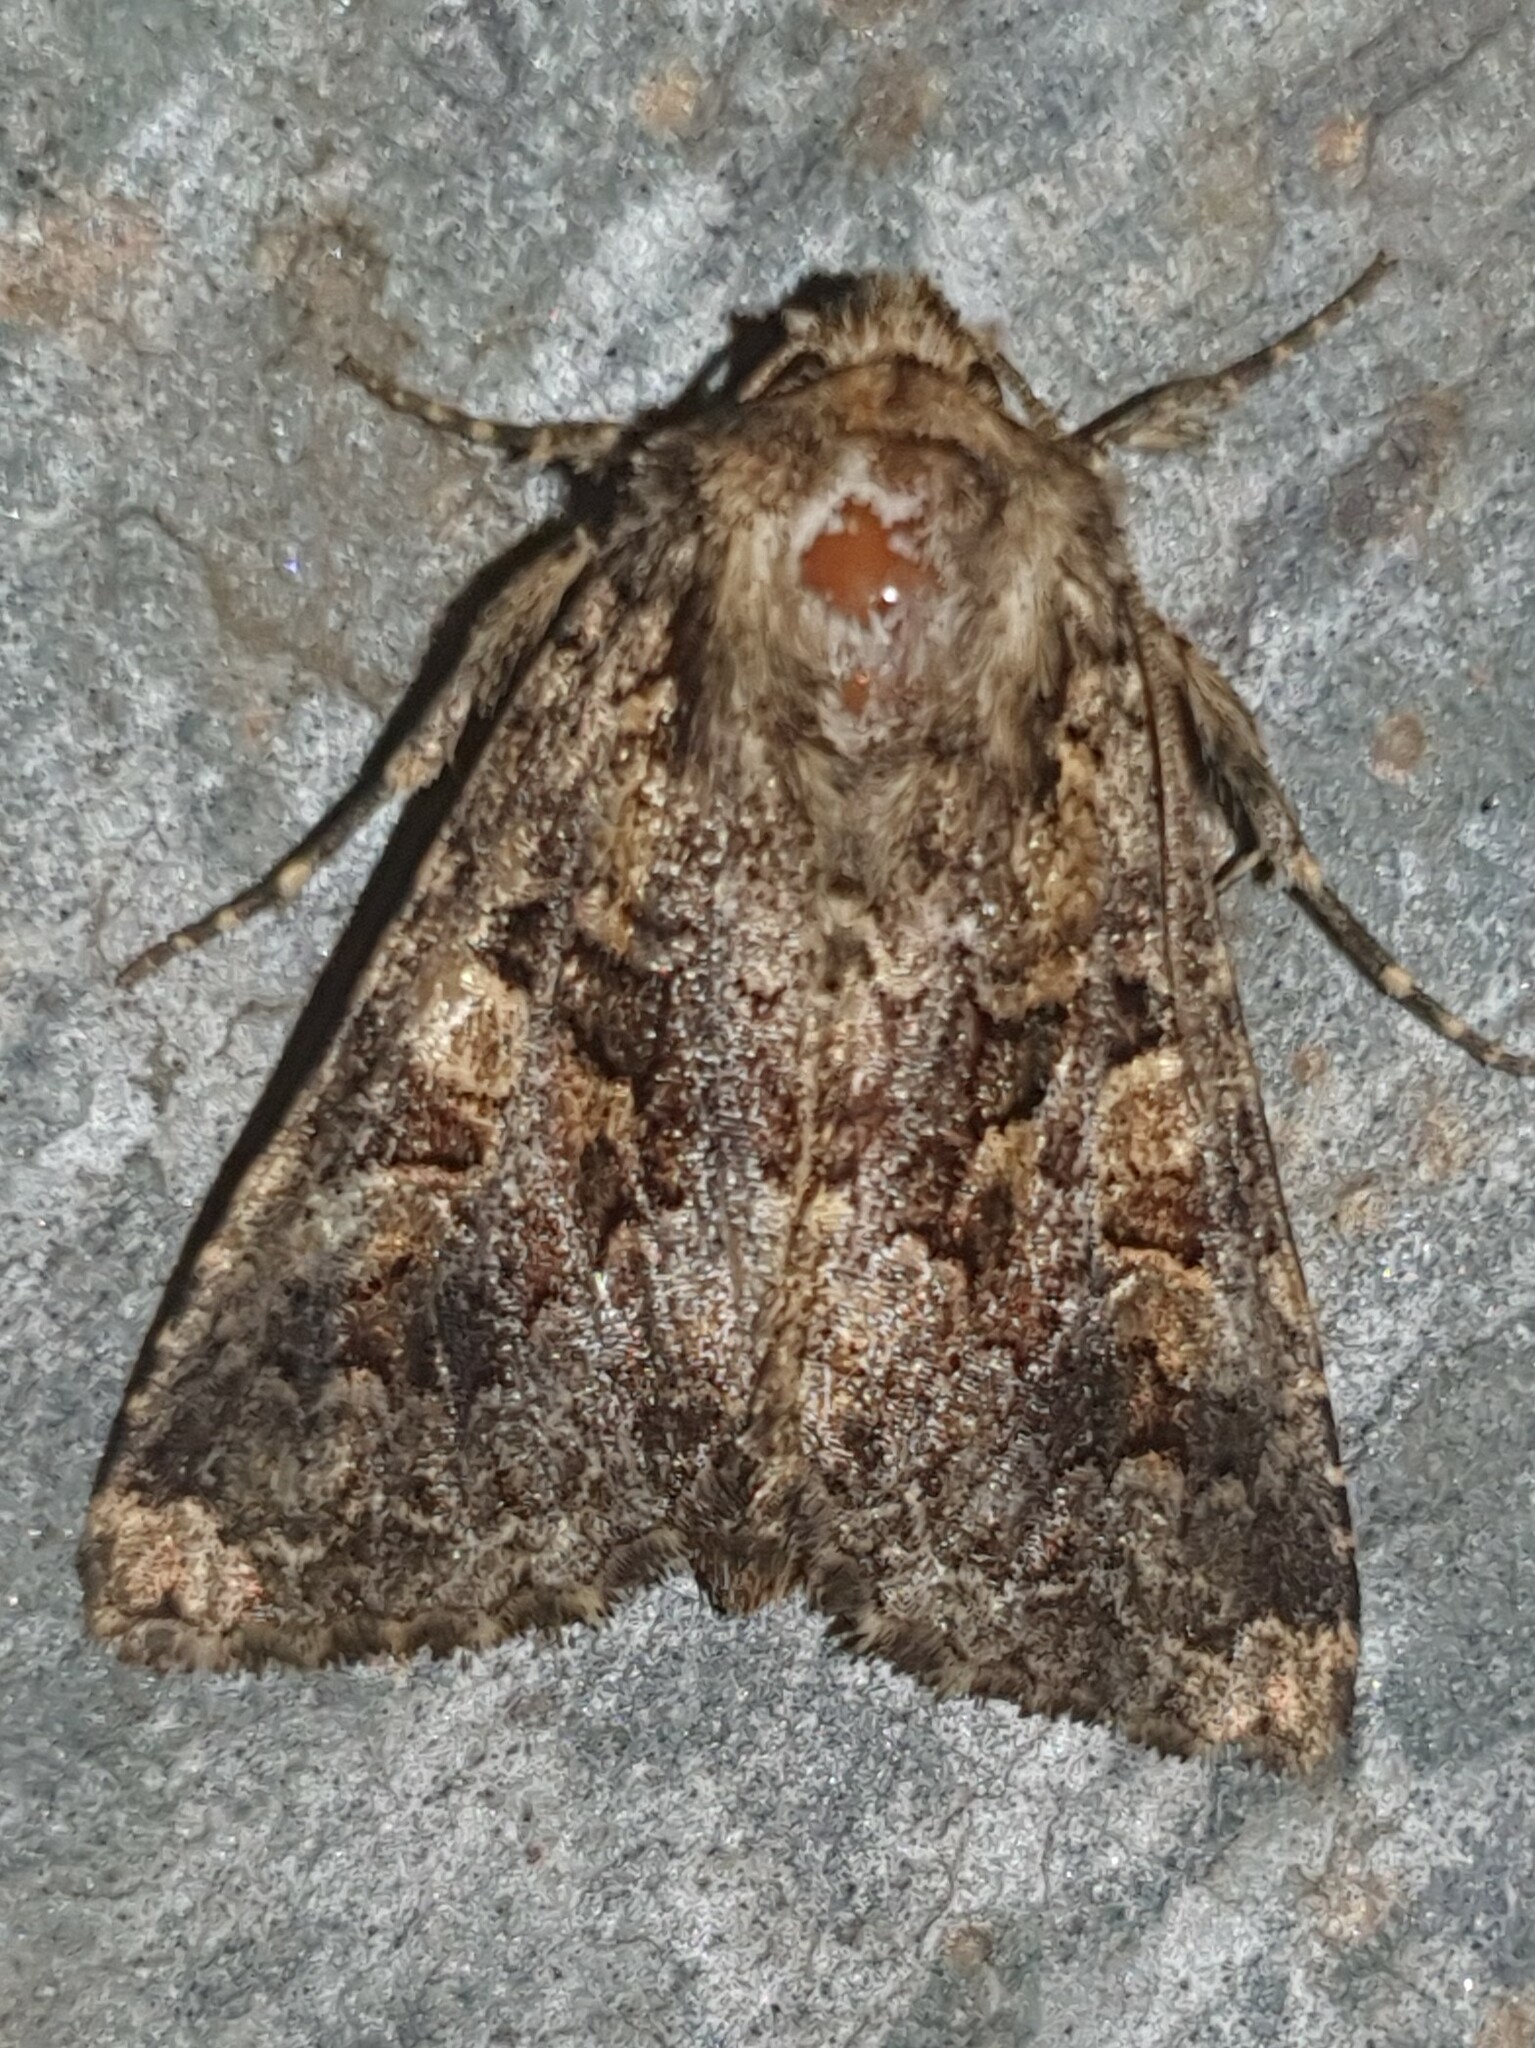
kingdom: Animalia
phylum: Arthropoda
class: Insecta
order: Lepidoptera
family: Noctuidae
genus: Conisania
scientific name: Conisania andalusica
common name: Barrett's marbled coronet
